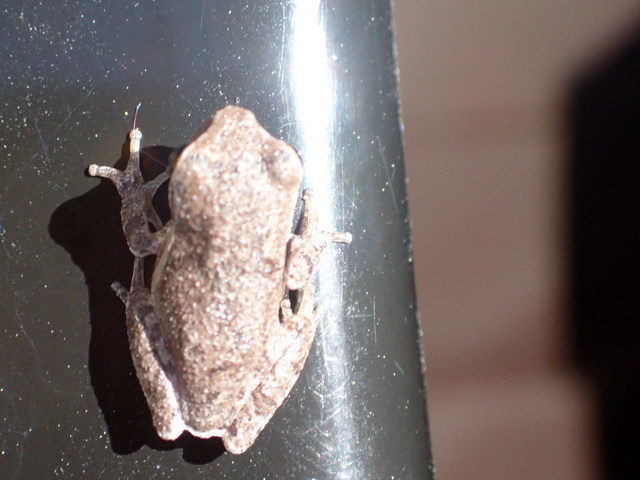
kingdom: Animalia
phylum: Chordata
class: Amphibia
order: Anura
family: Hylidae
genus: Hyla
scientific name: Hyla femoralis
